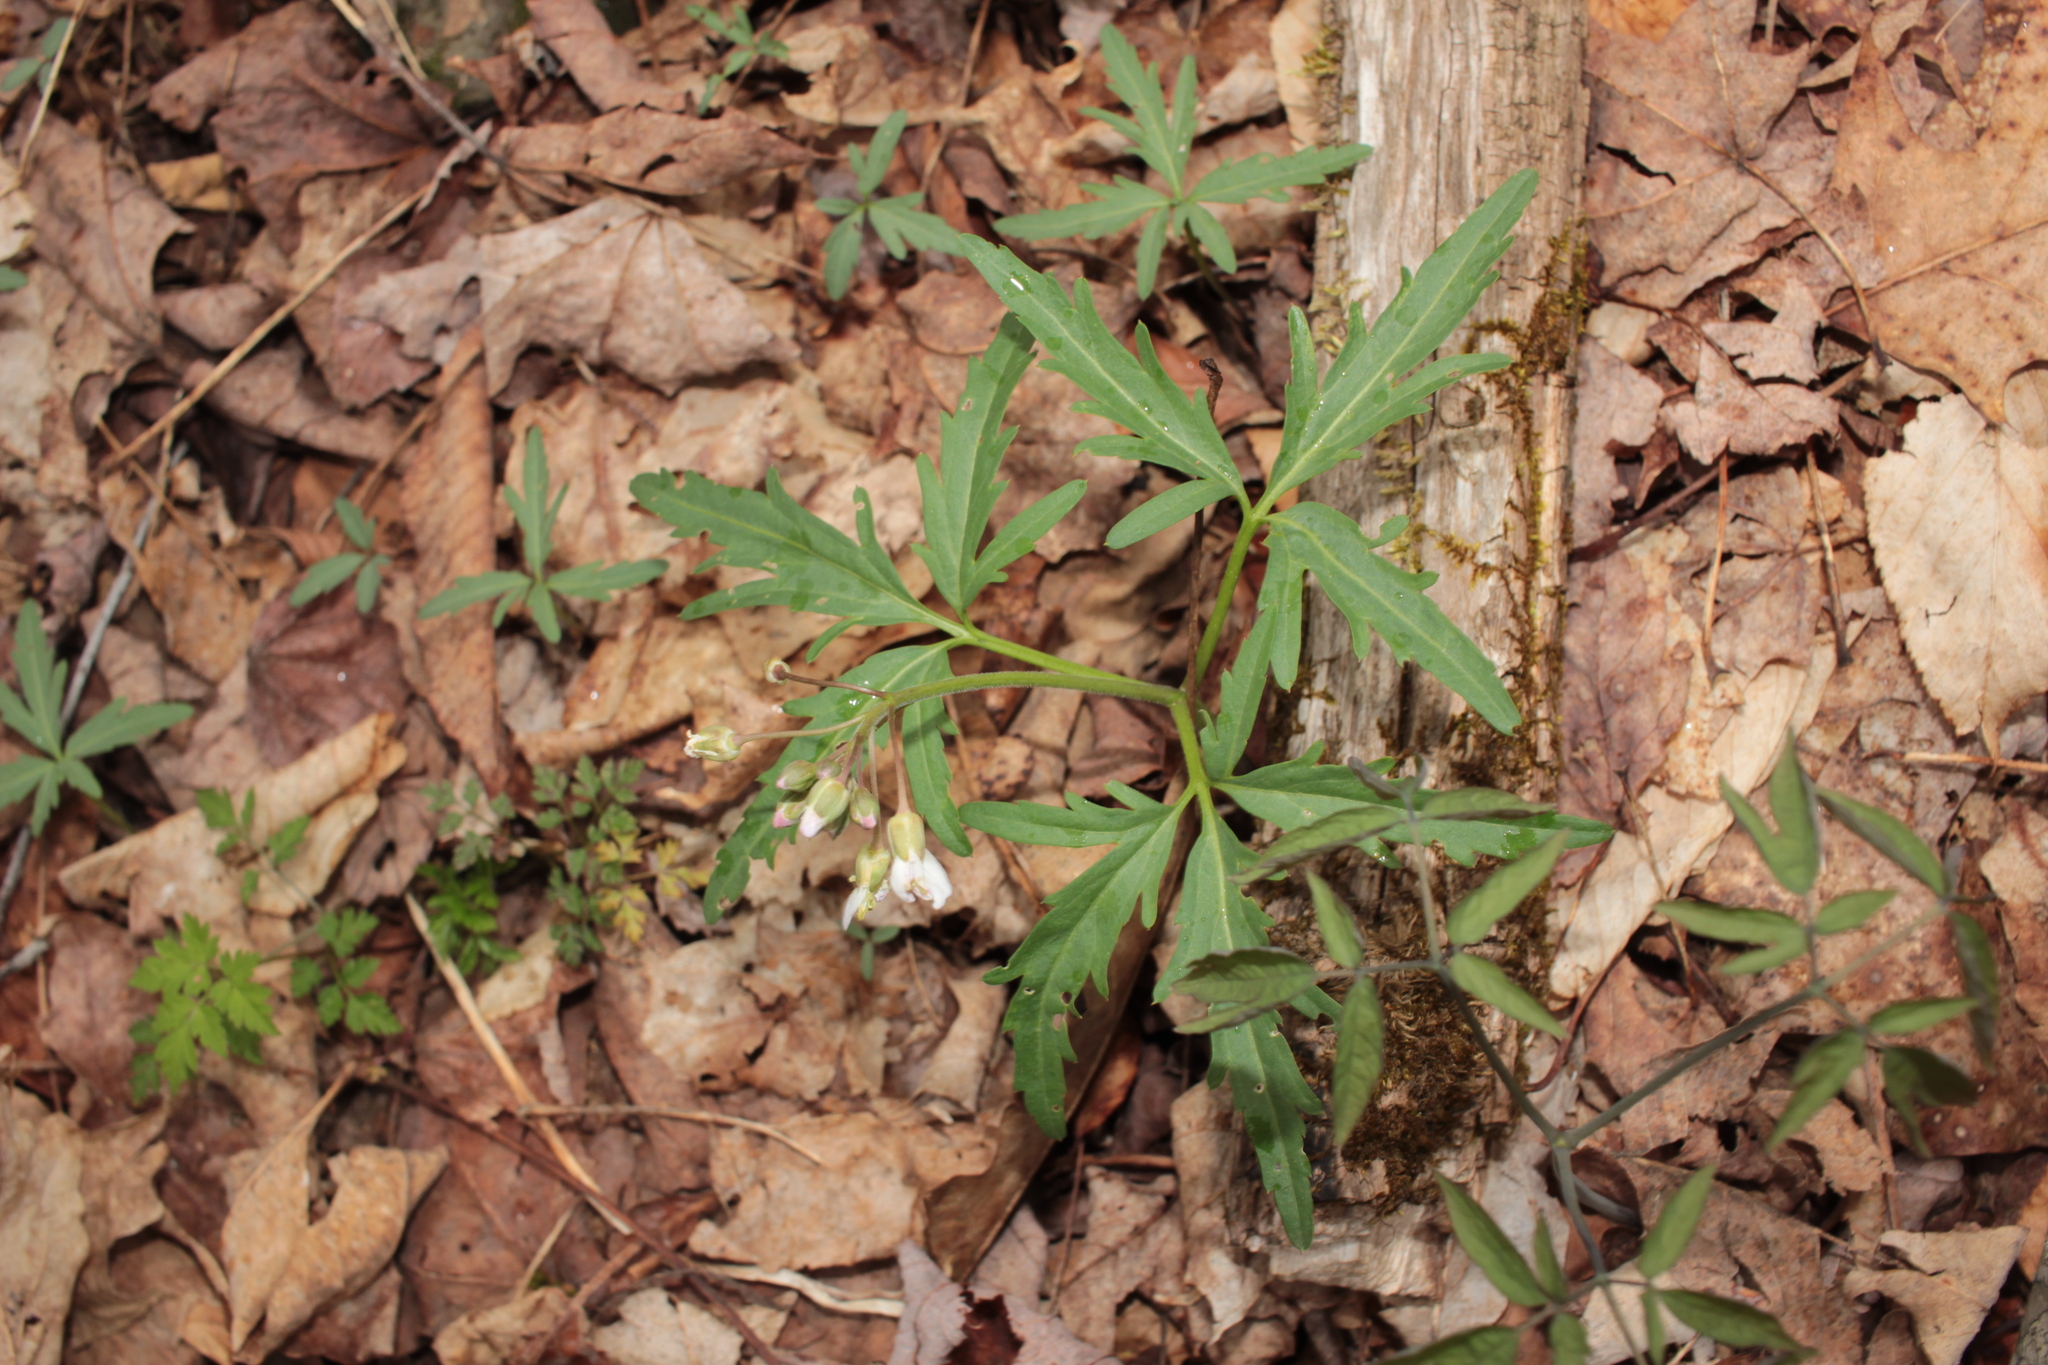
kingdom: Plantae
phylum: Tracheophyta
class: Magnoliopsida
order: Brassicales
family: Brassicaceae
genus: Cardamine
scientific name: Cardamine concatenata
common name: Cut-leaf toothcup
